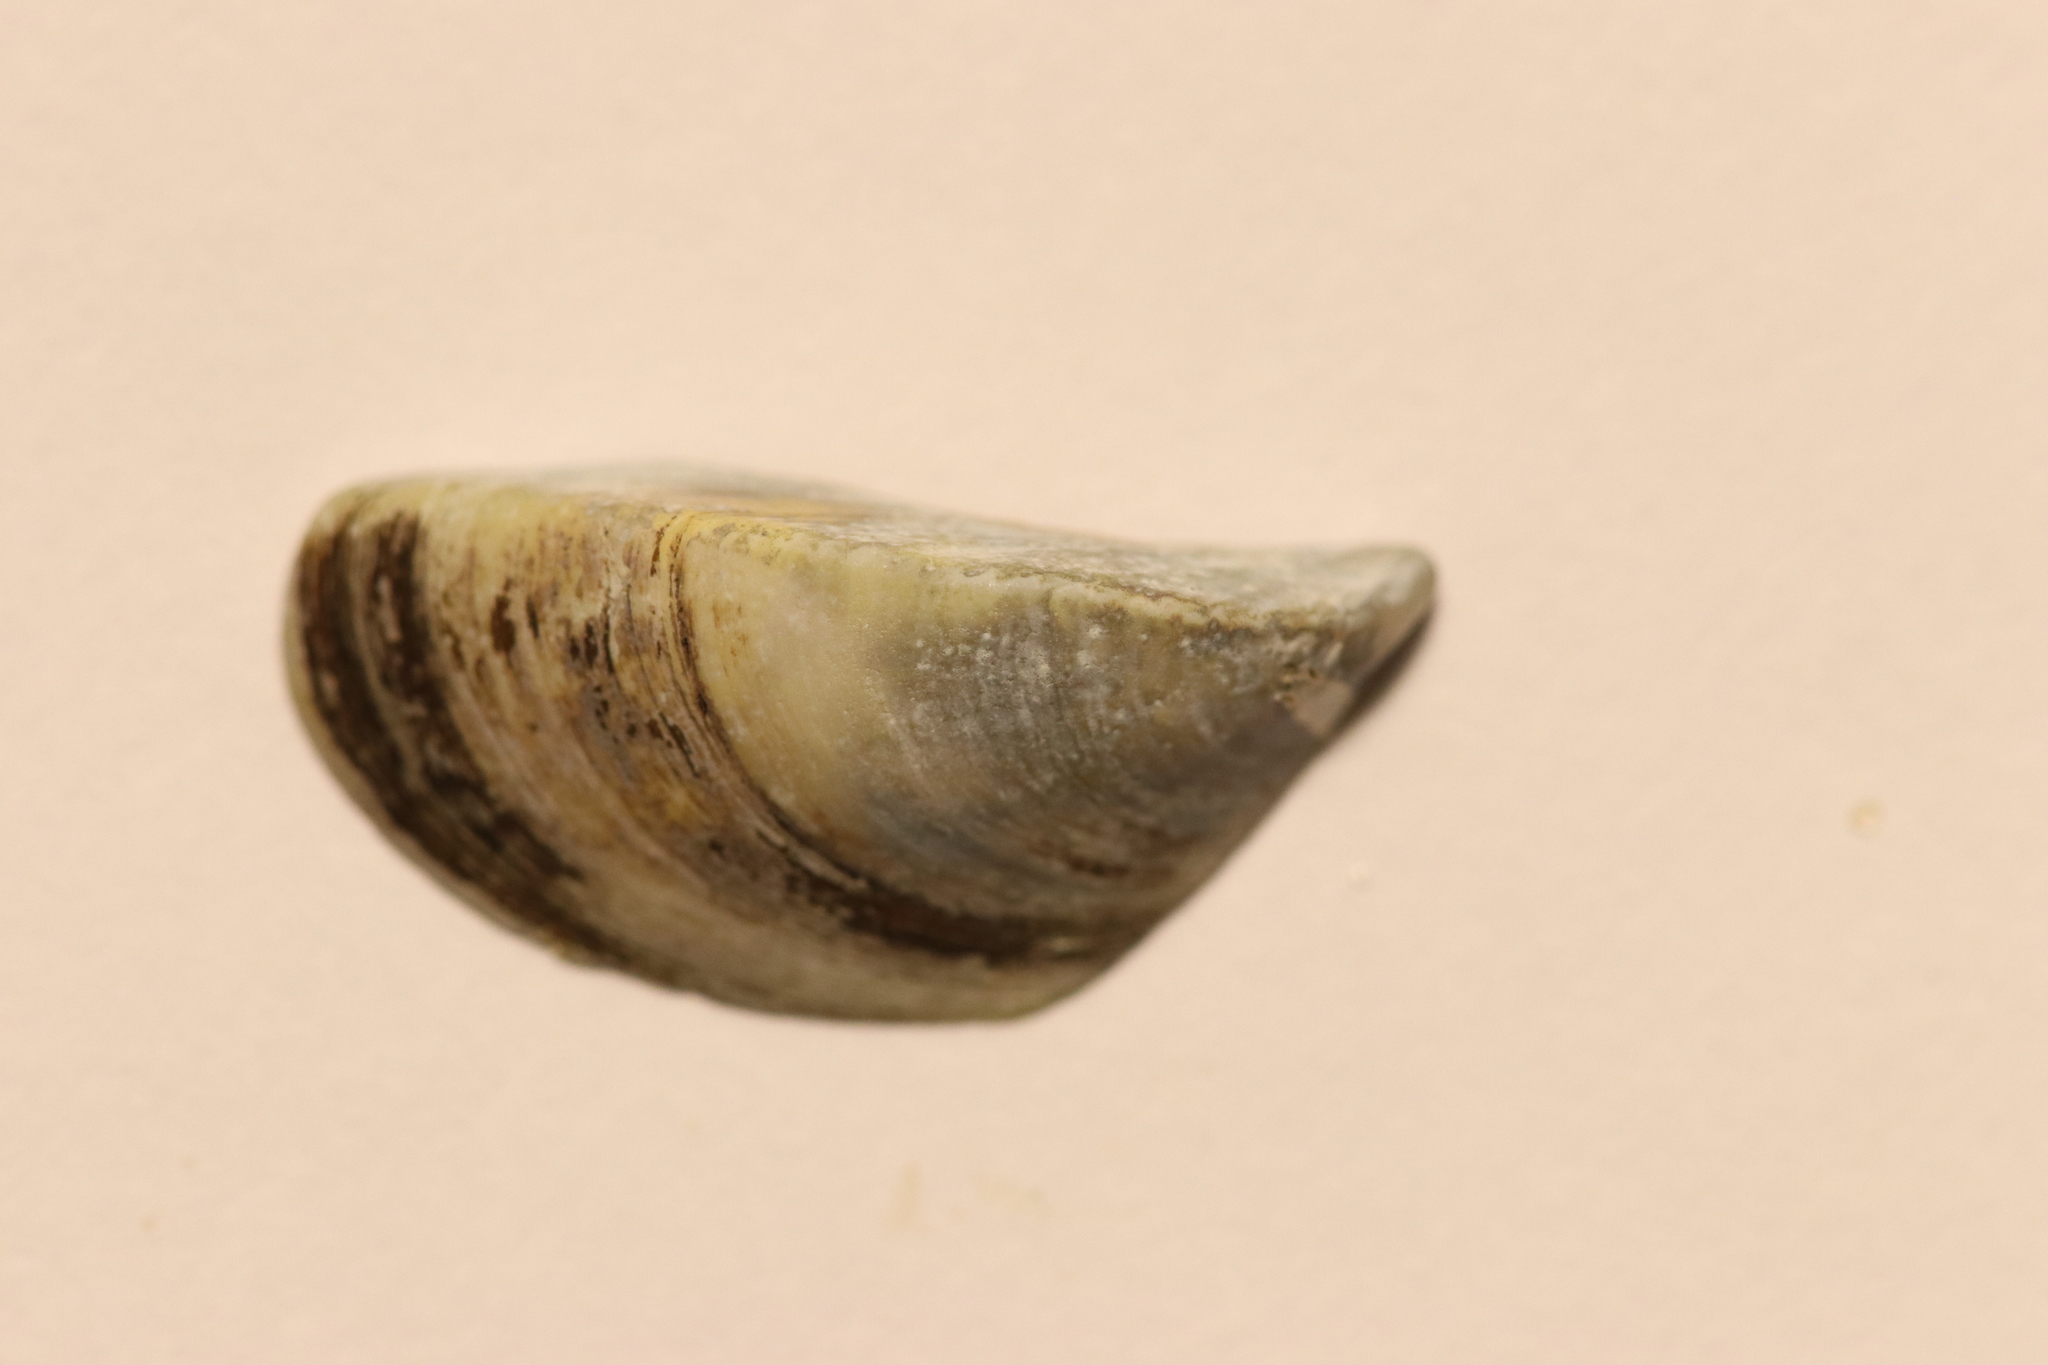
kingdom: Animalia
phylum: Mollusca
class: Bivalvia
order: Myida
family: Dreissenidae
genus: Dreissena
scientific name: Dreissena polymorpha
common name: Zebra mussel
